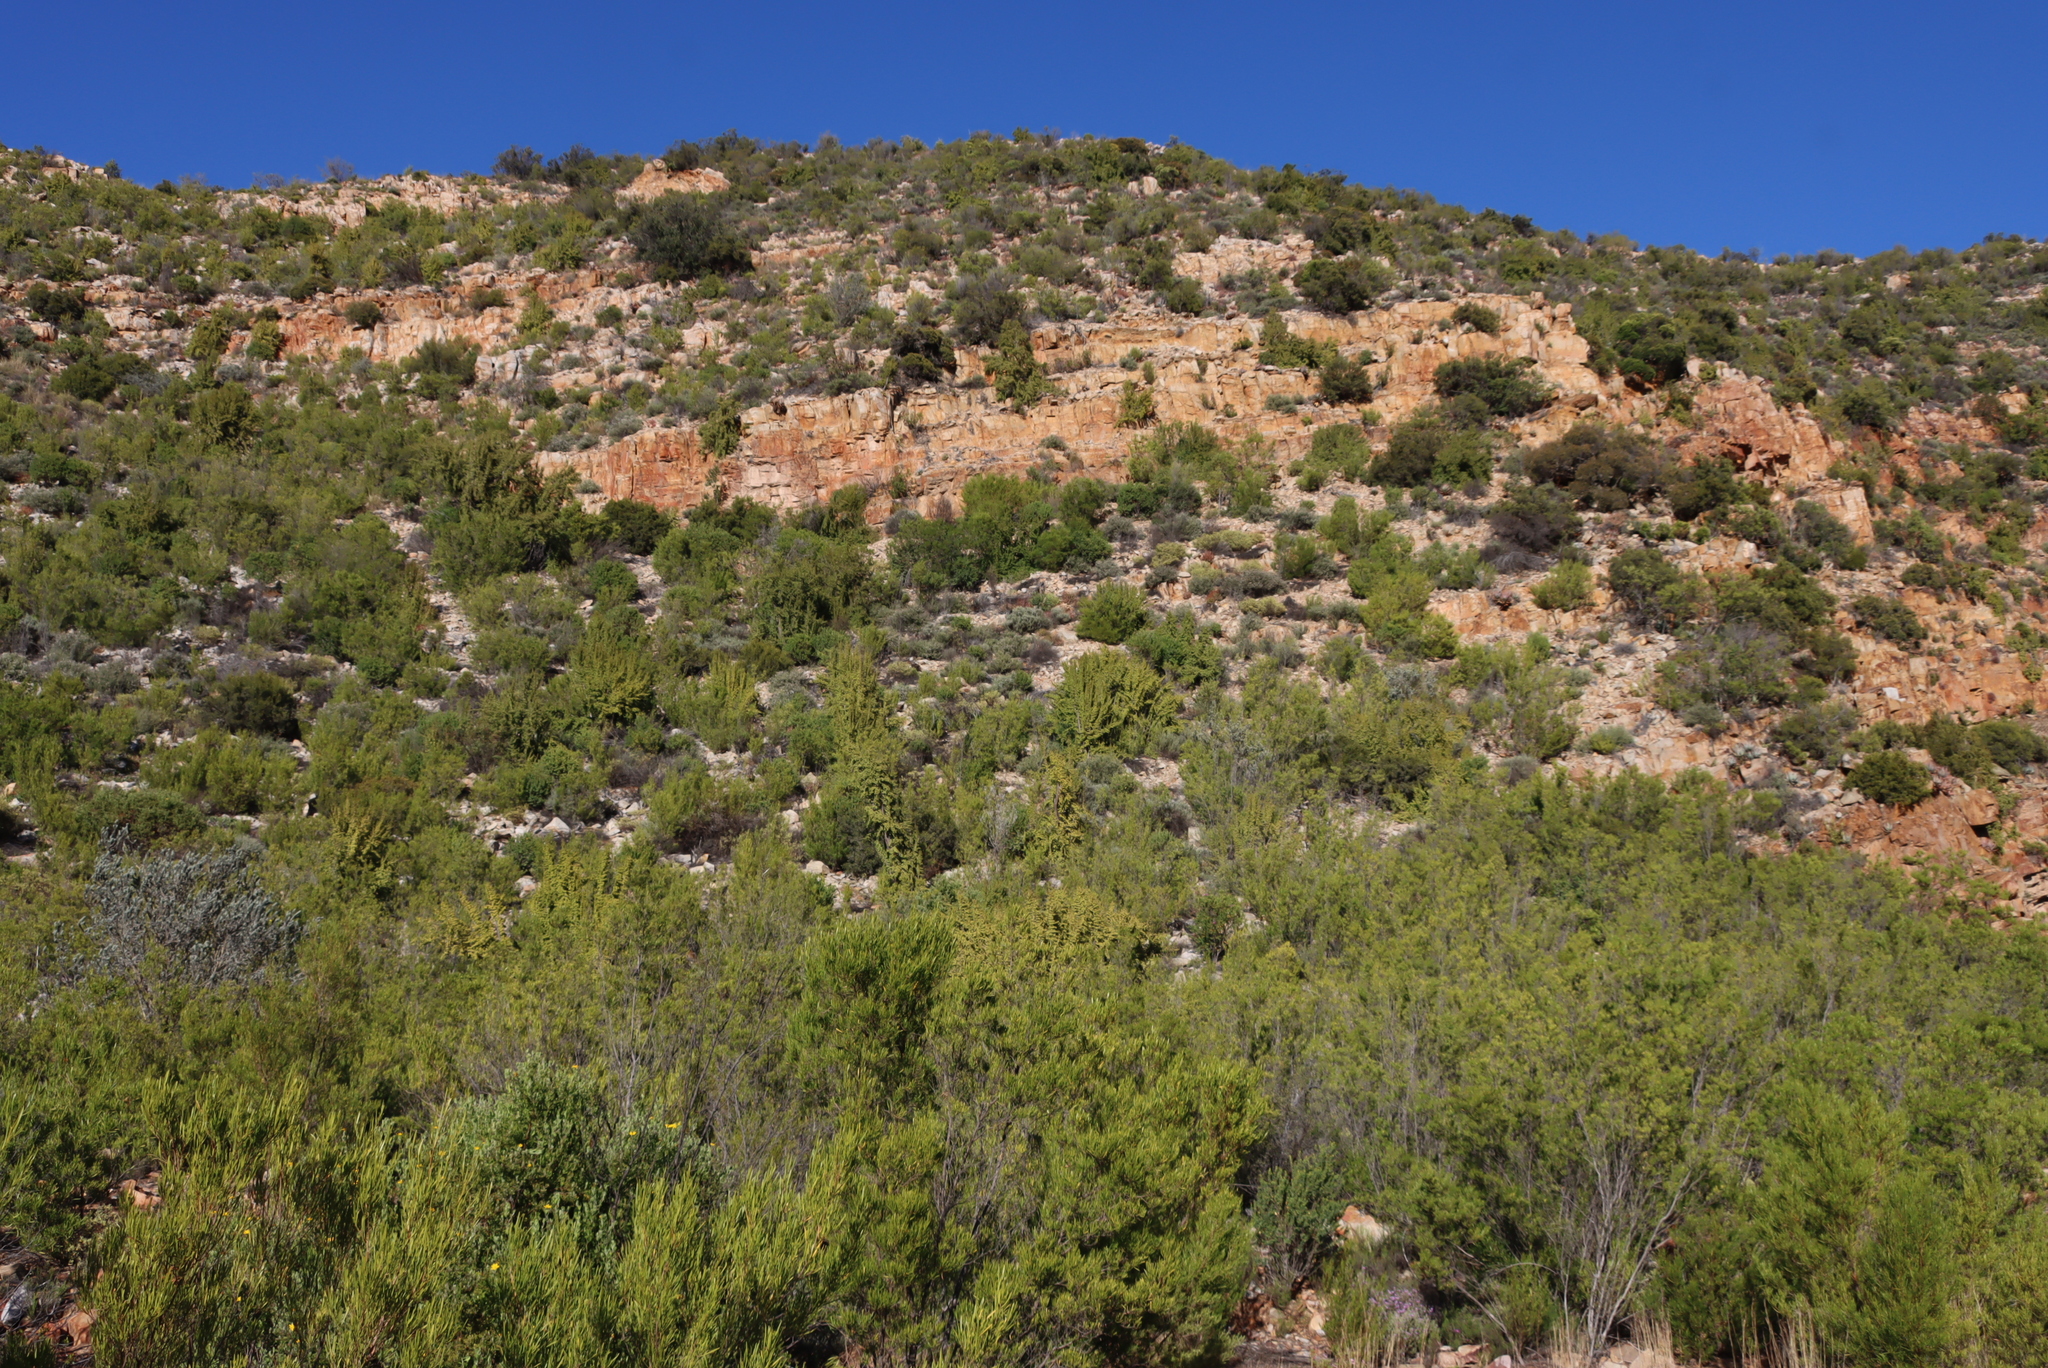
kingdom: Plantae
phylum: Tracheophyta
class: Magnoliopsida
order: Caryophyllales
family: Didiereaceae
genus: Portulacaria
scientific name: Portulacaria afra
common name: Elephant-bush
